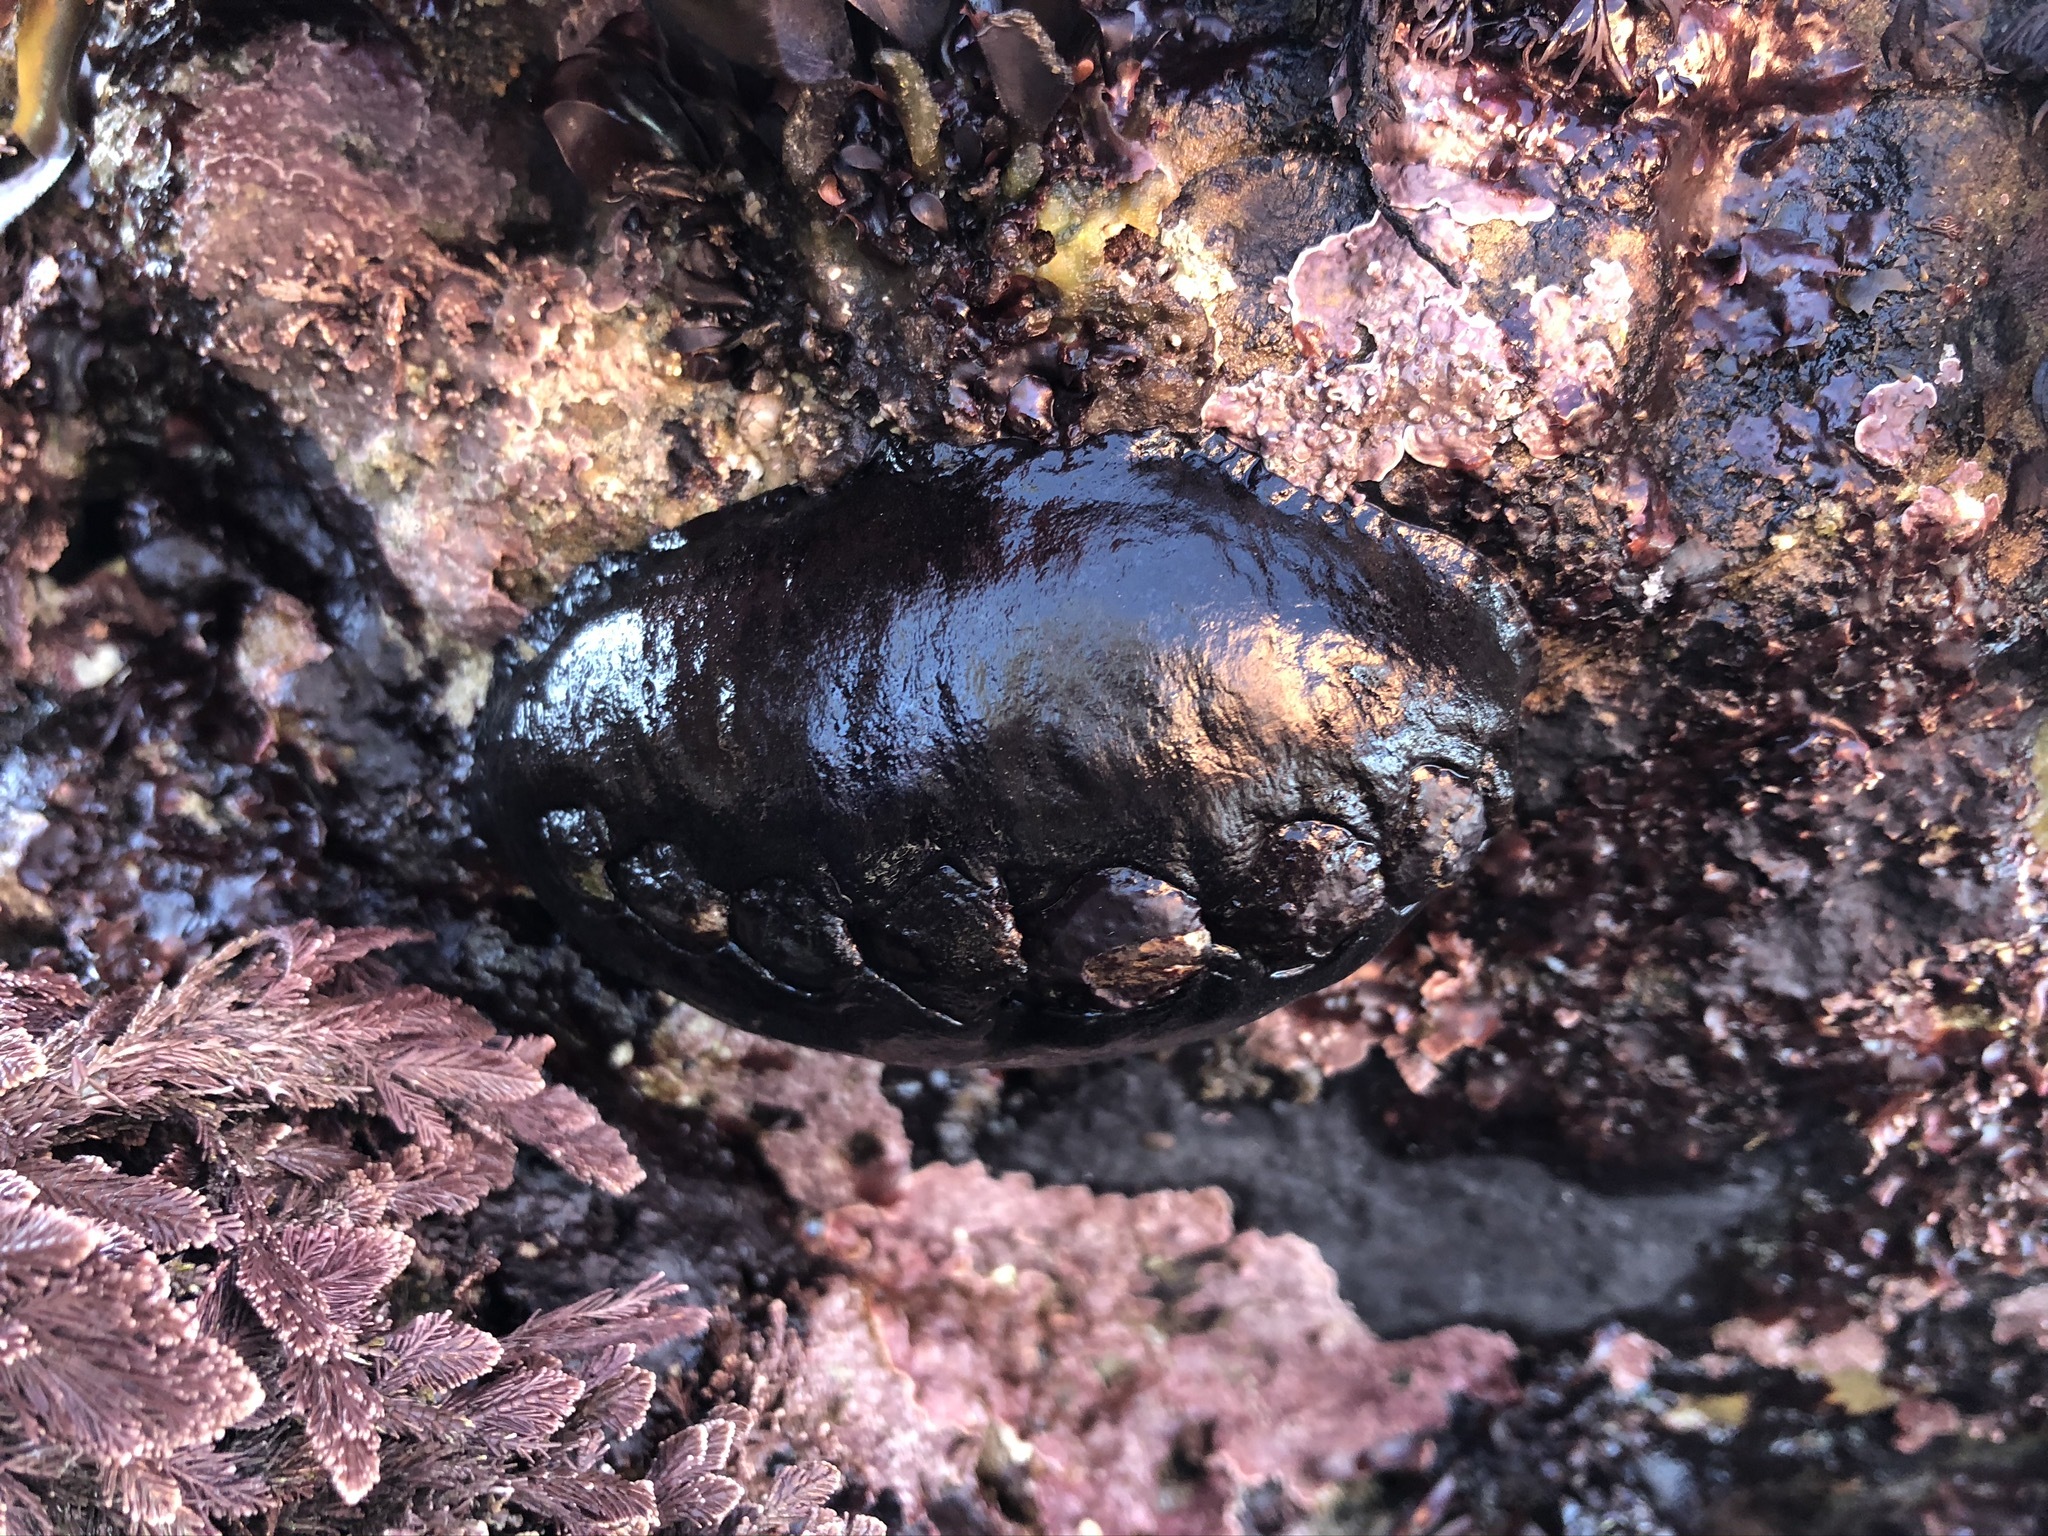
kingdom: Animalia
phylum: Mollusca
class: Polyplacophora
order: Chitonida
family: Mopaliidae
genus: Katharina
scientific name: Katharina tunicata
